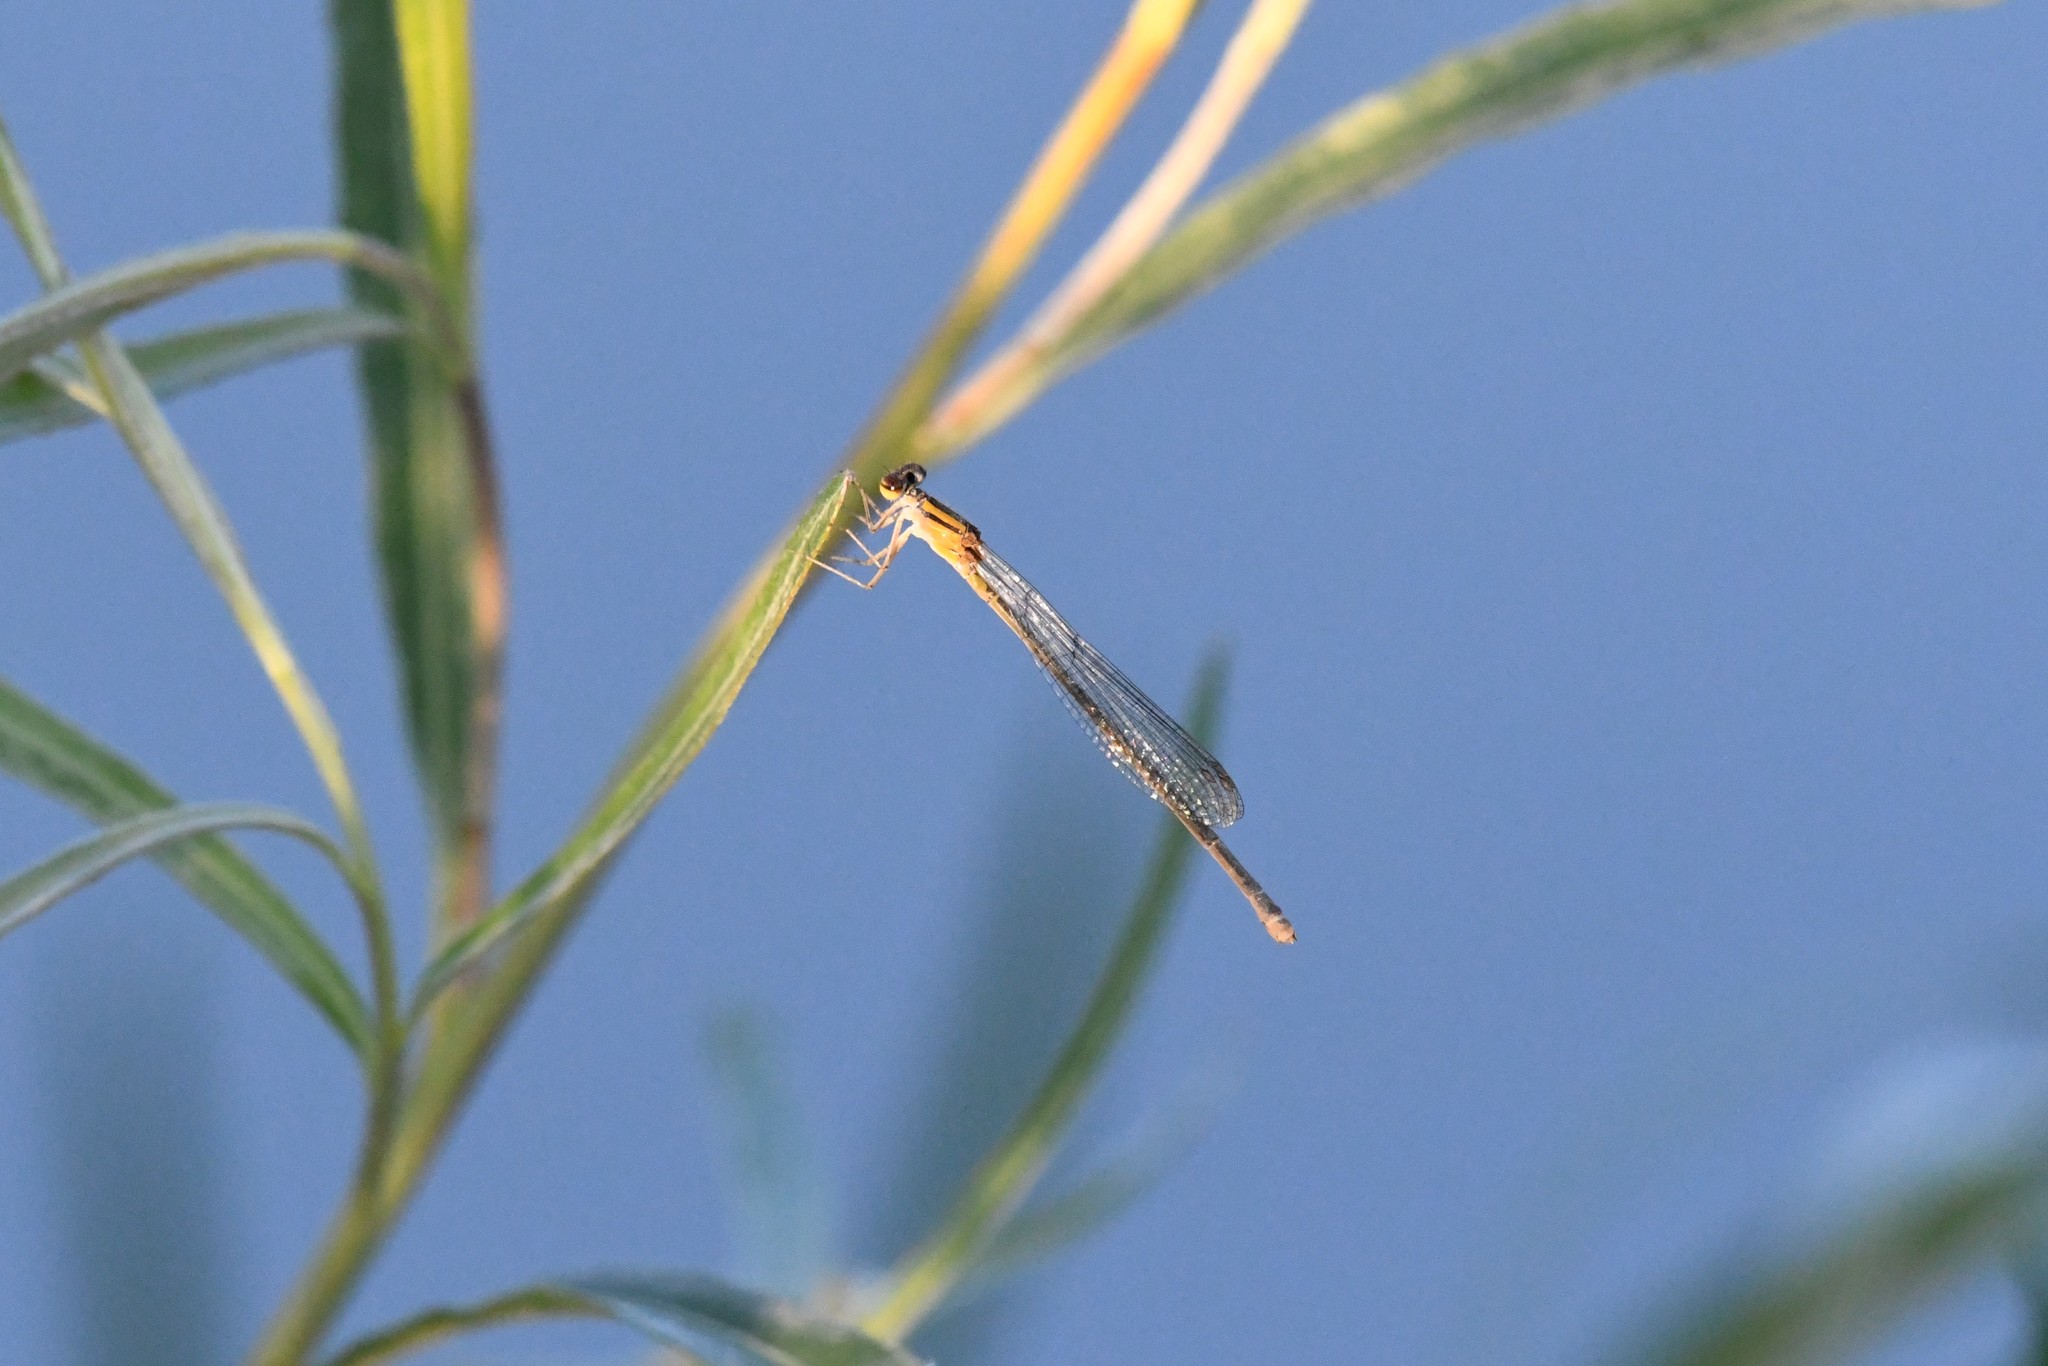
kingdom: Animalia
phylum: Arthropoda
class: Insecta
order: Odonata
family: Coenagrionidae
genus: Enallagma
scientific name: Enallagma signatum
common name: Orange bluet
